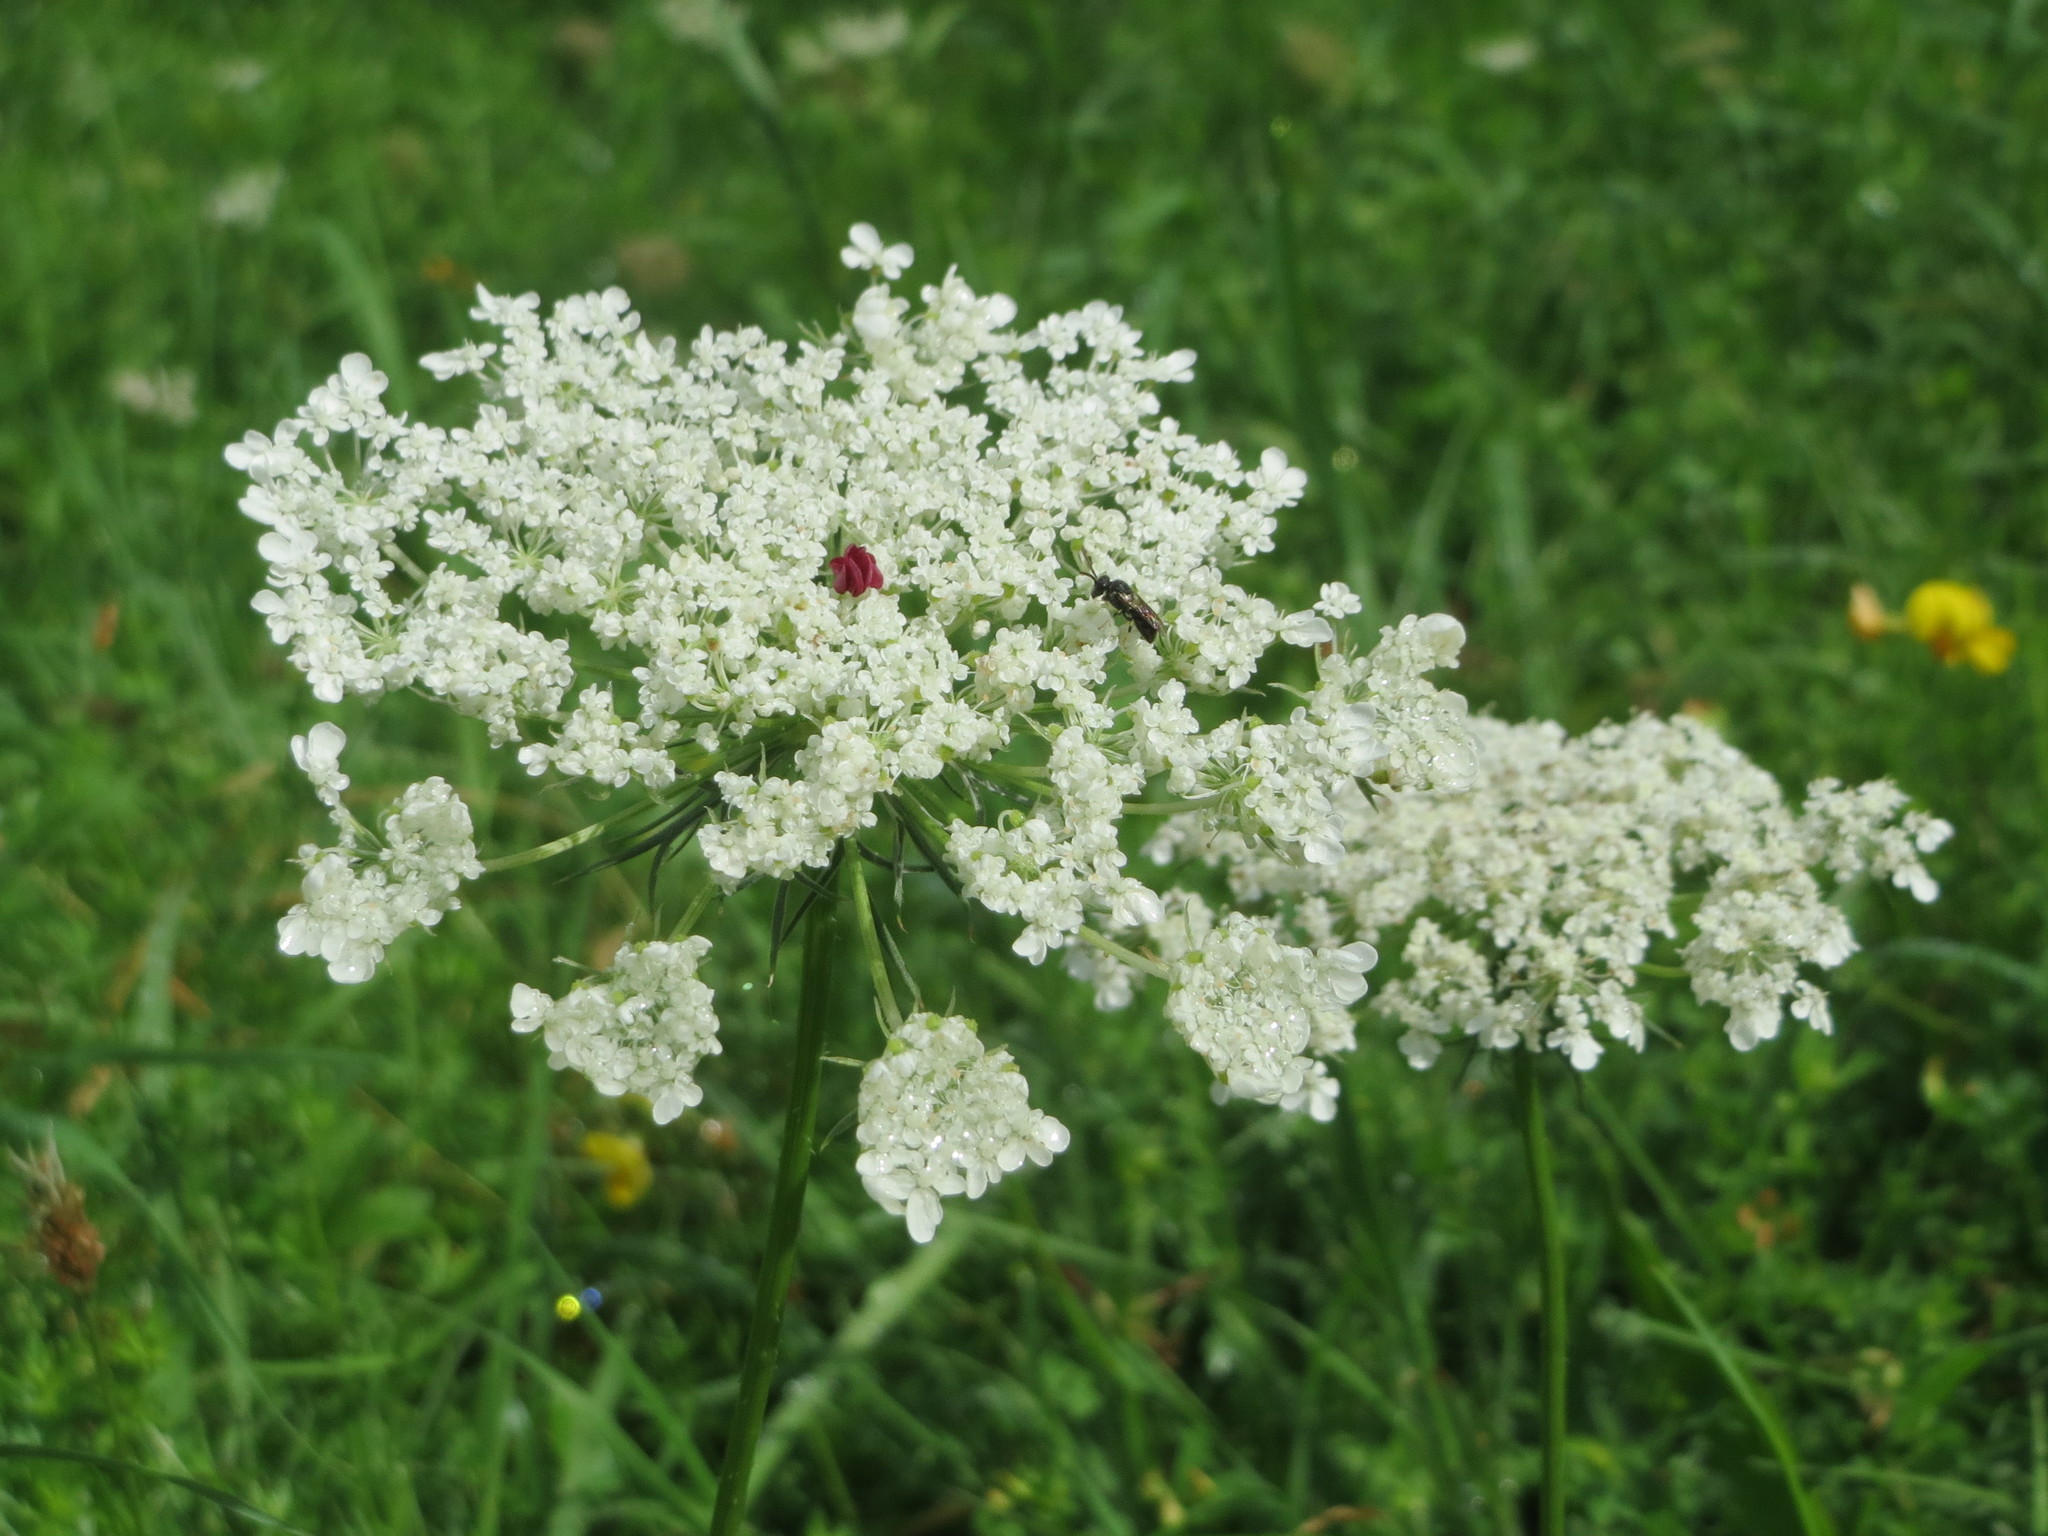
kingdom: Plantae
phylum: Tracheophyta
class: Magnoliopsida
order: Apiales
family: Apiaceae
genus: Daucus
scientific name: Daucus carota
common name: Wild carrot
